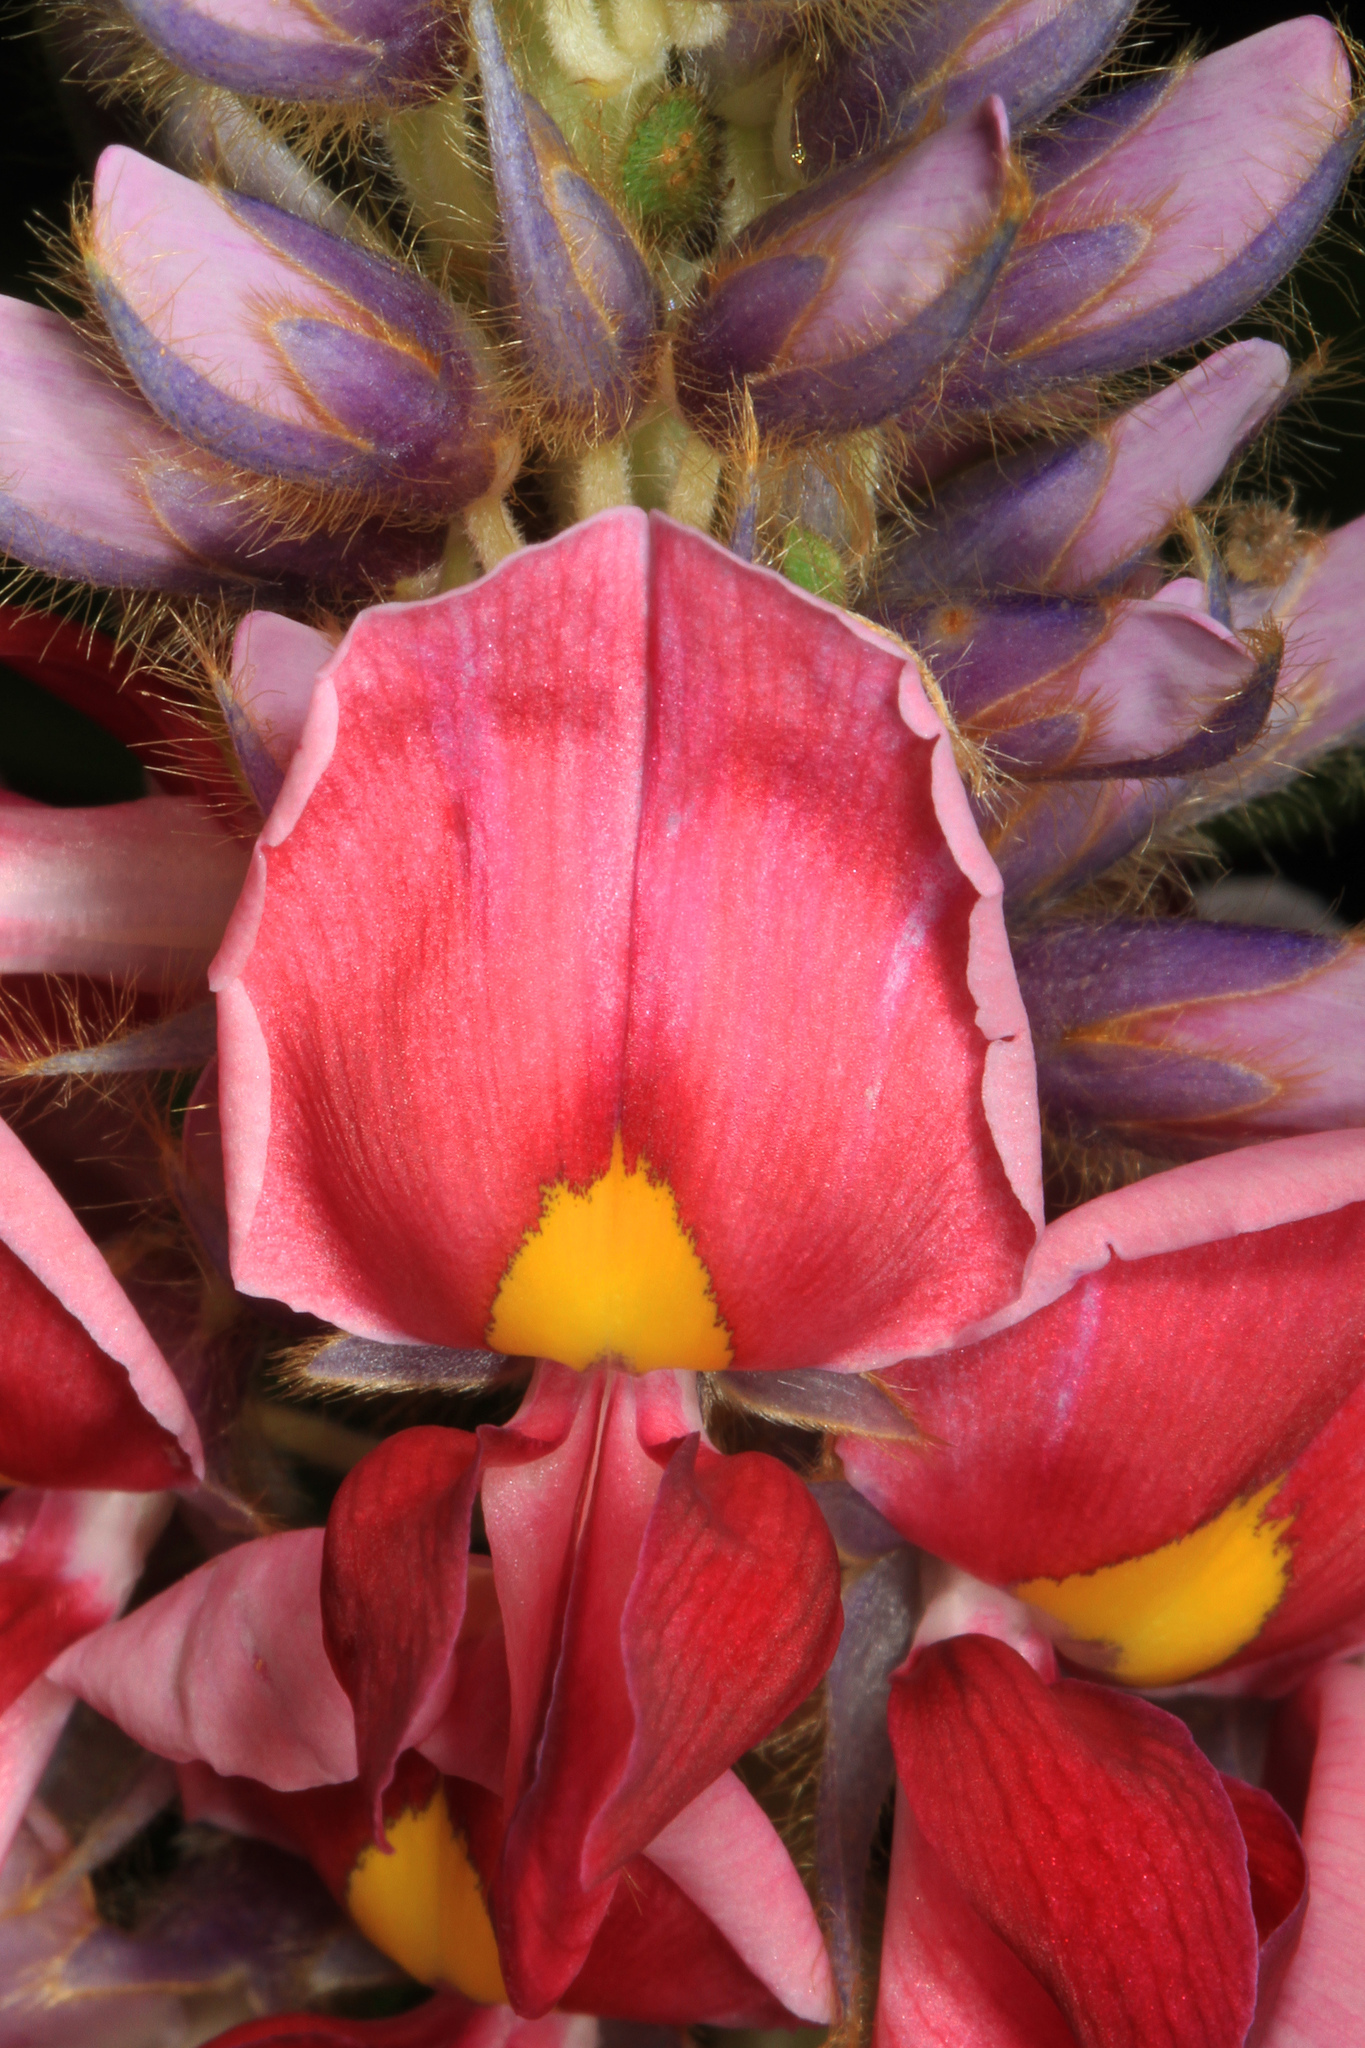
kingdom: Plantae
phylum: Tracheophyta
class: Magnoliopsida
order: Fabales
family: Fabaceae
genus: Pueraria
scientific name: Pueraria montana
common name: Kudzu
